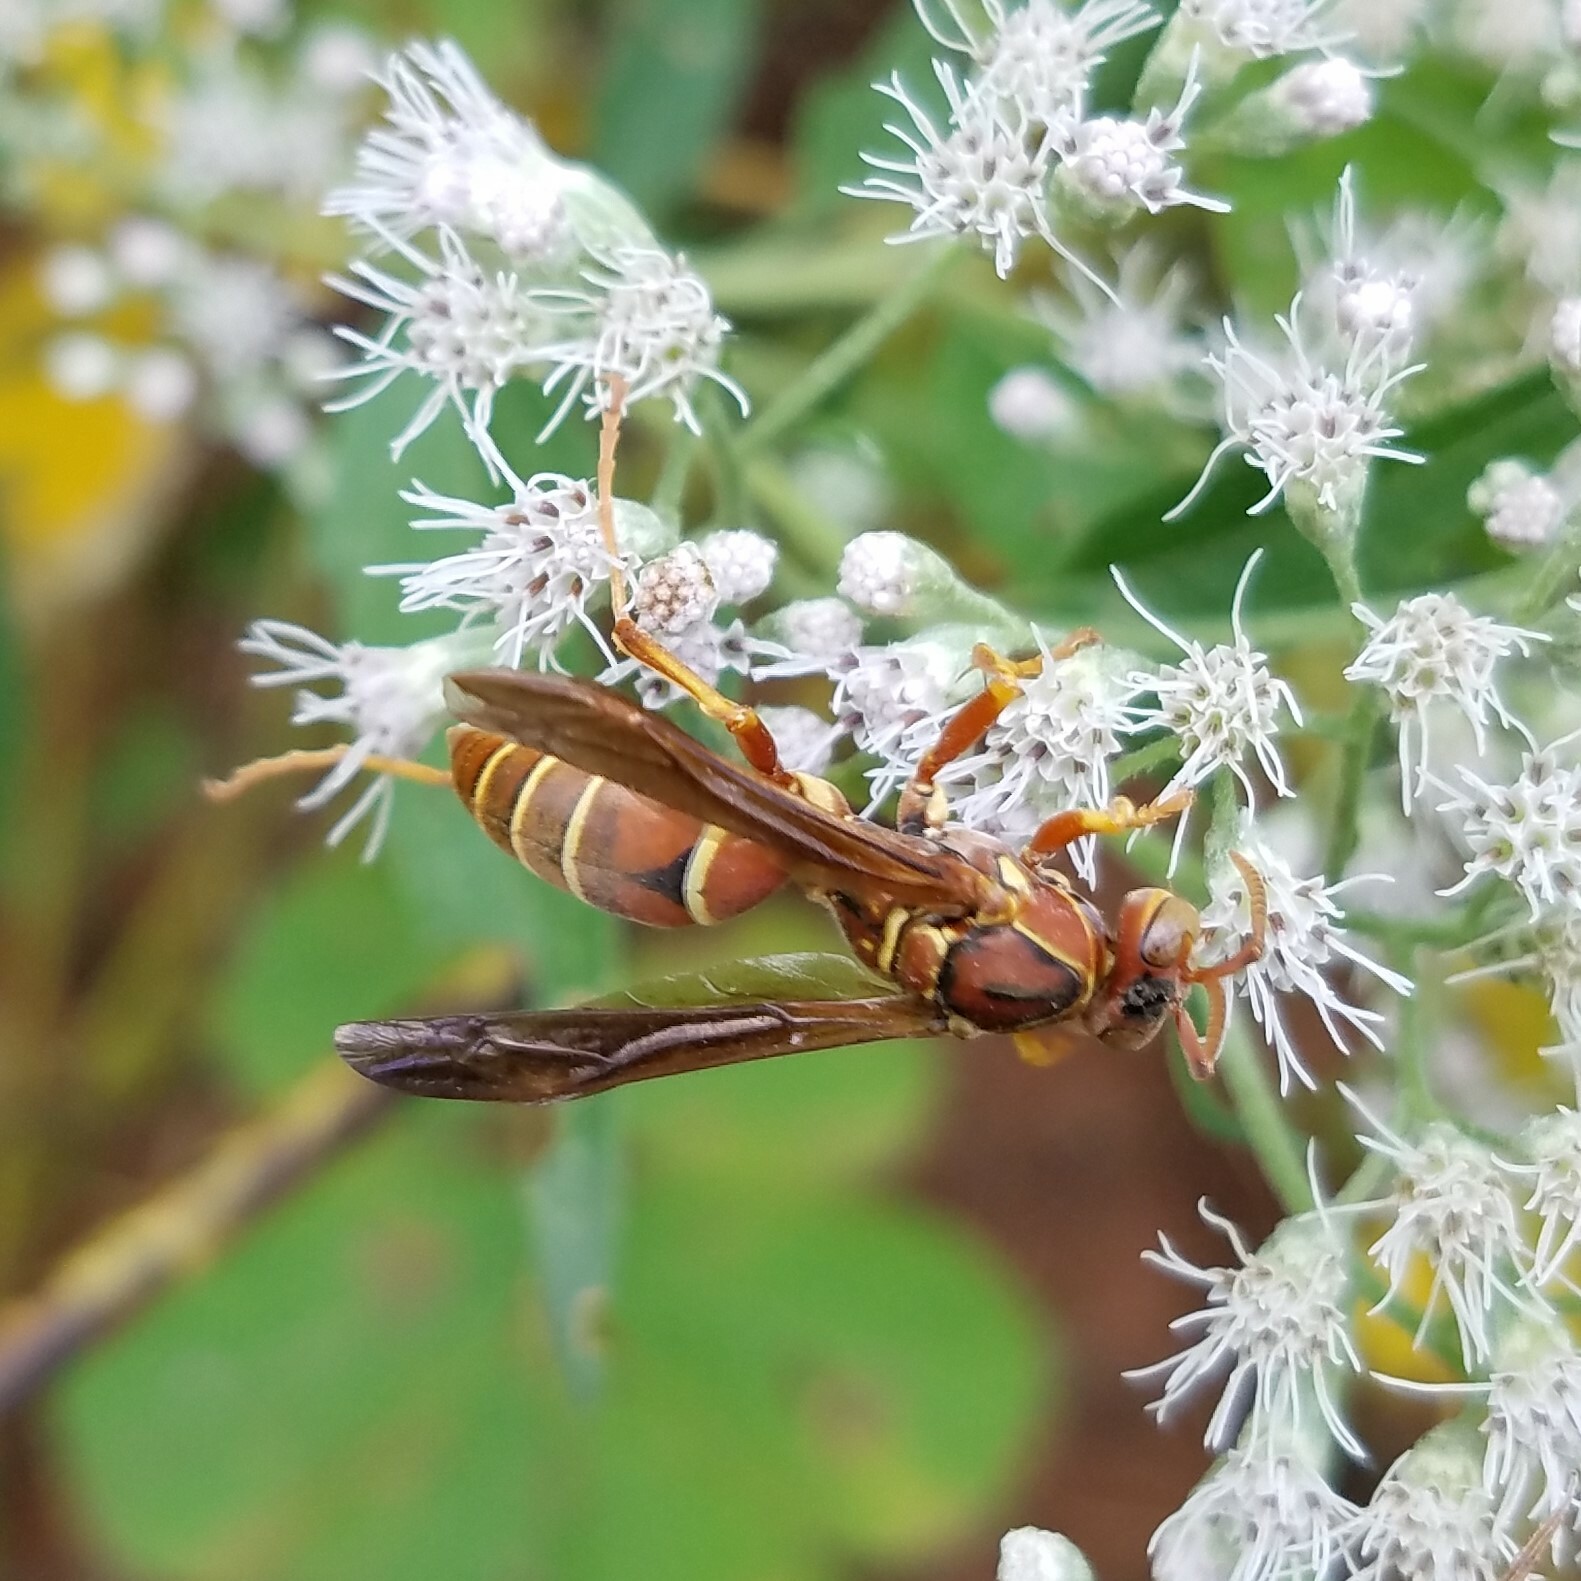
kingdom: Animalia
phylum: Arthropoda
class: Insecta
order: Hymenoptera
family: Eumenidae
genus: Polistes
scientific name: Polistes bellicosus
